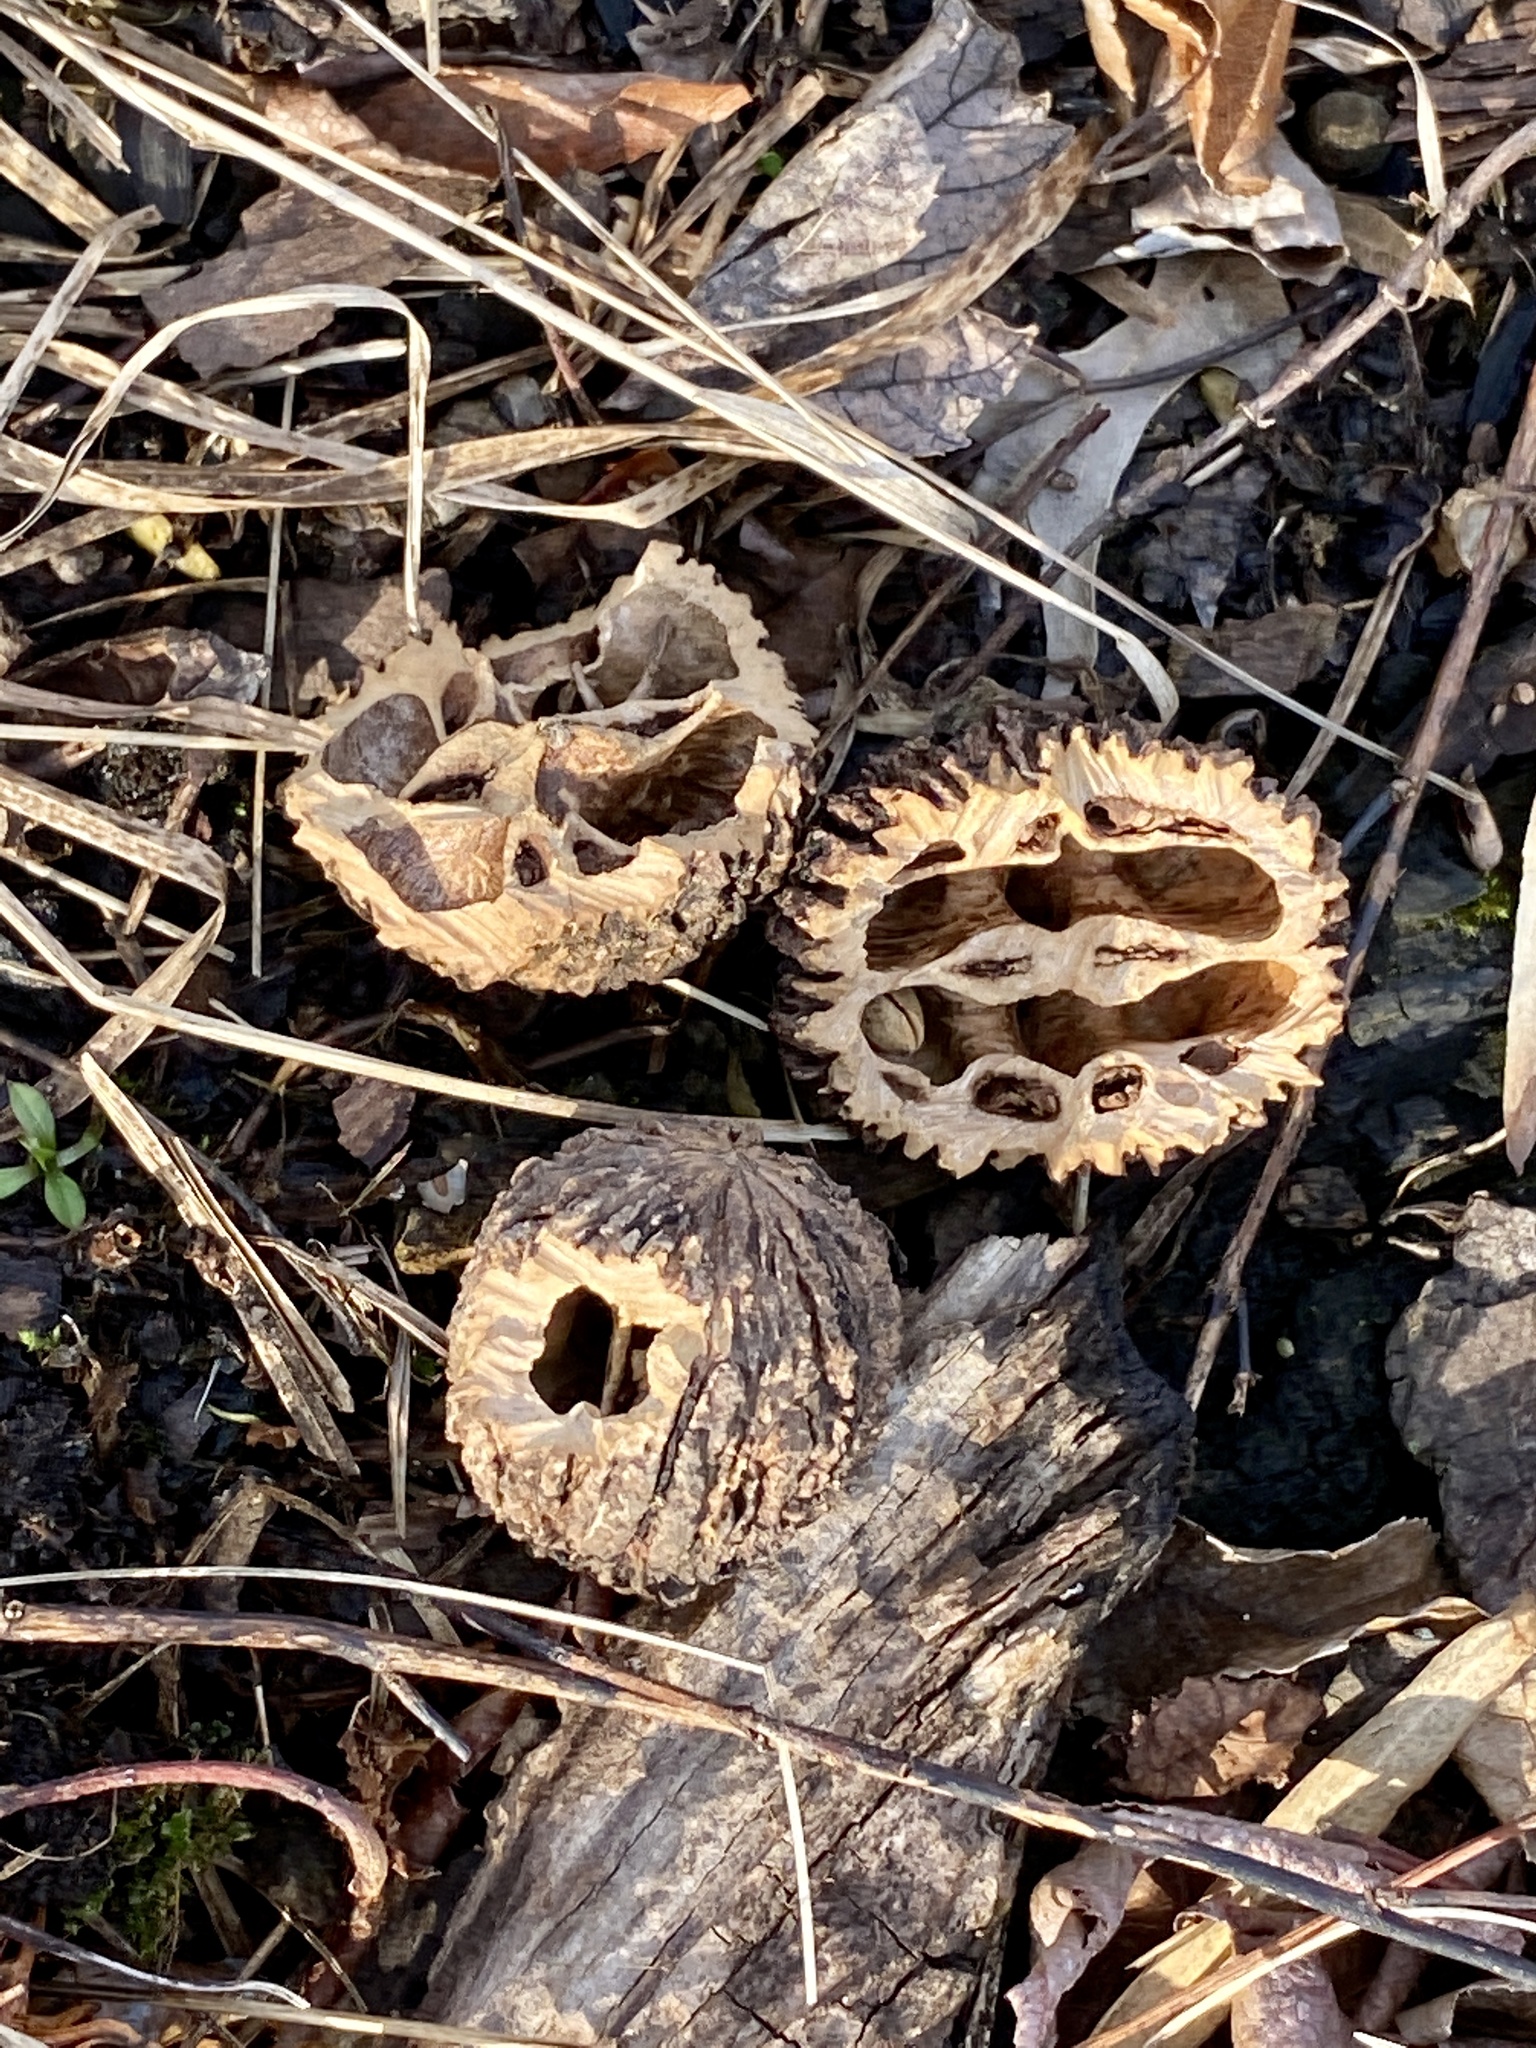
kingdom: Plantae
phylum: Tracheophyta
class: Magnoliopsida
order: Fagales
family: Juglandaceae
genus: Juglans
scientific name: Juglans nigra
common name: Black walnut
